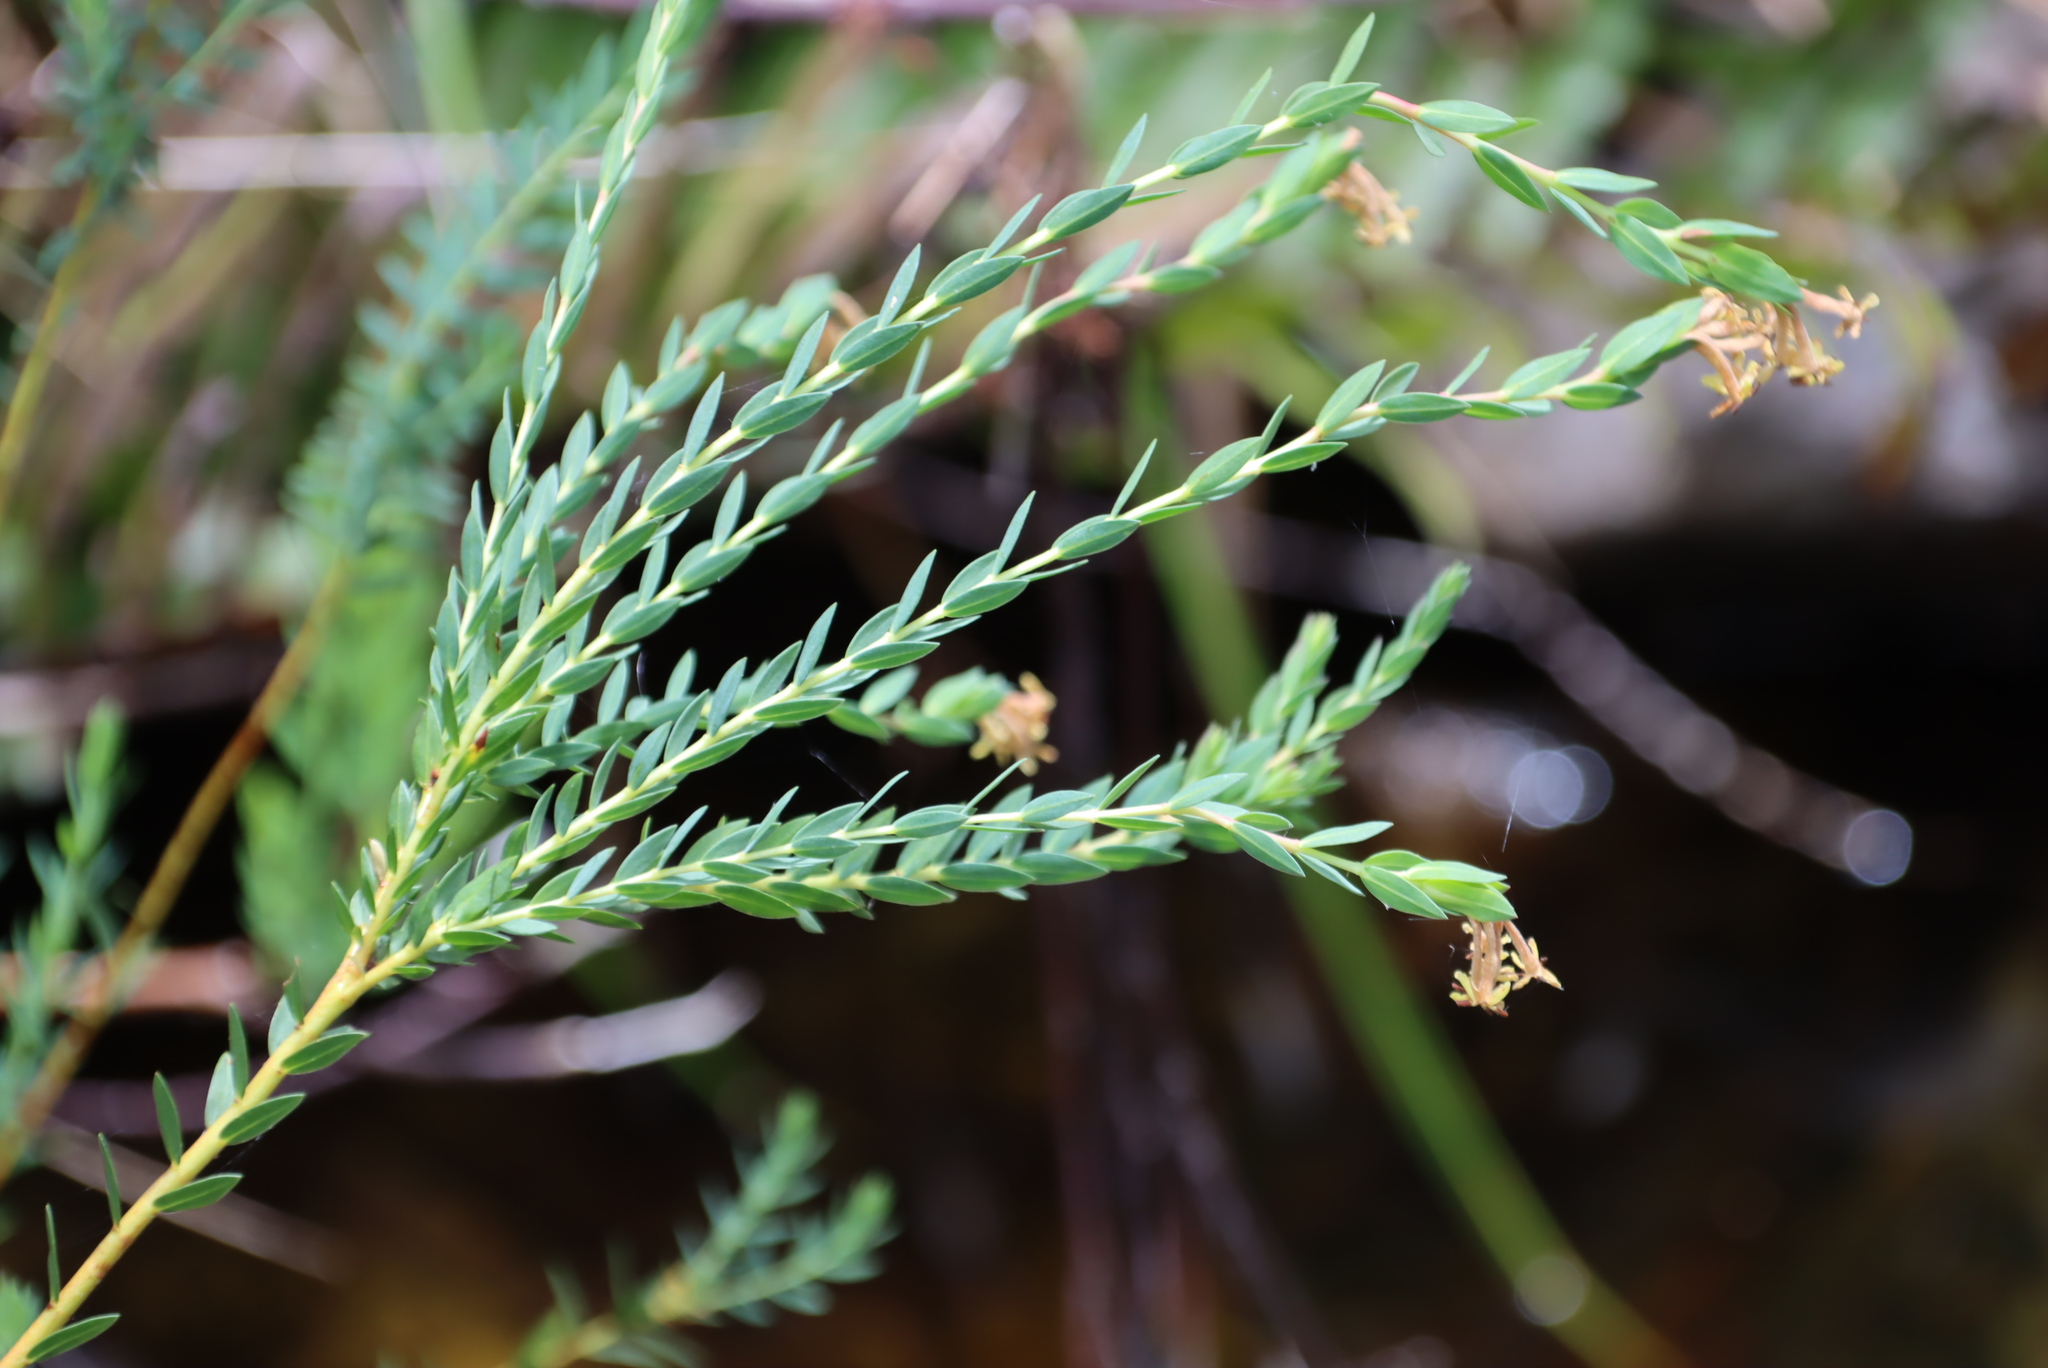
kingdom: Plantae
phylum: Tracheophyta
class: Magnoliopsida
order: Malvales
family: Thymelaeaceae
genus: Gnidia
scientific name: Gnidia oppositifolia
